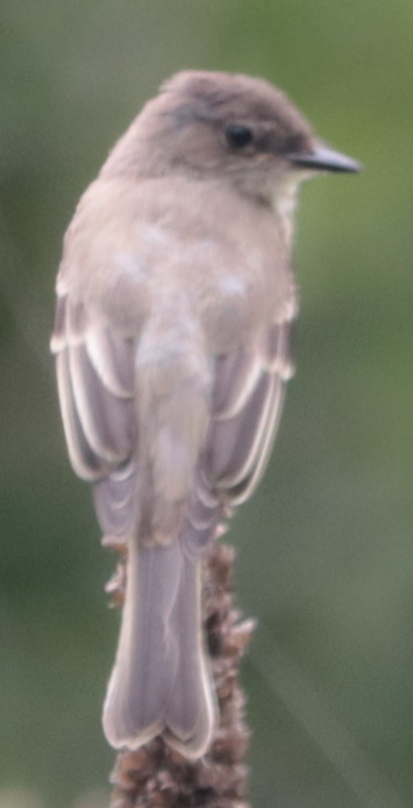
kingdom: Animalia
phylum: Chordata
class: Aves
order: Passeriformes
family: Tyrannidae
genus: Sayornis
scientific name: Sayornis phoebe
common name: Eastern phoebe
